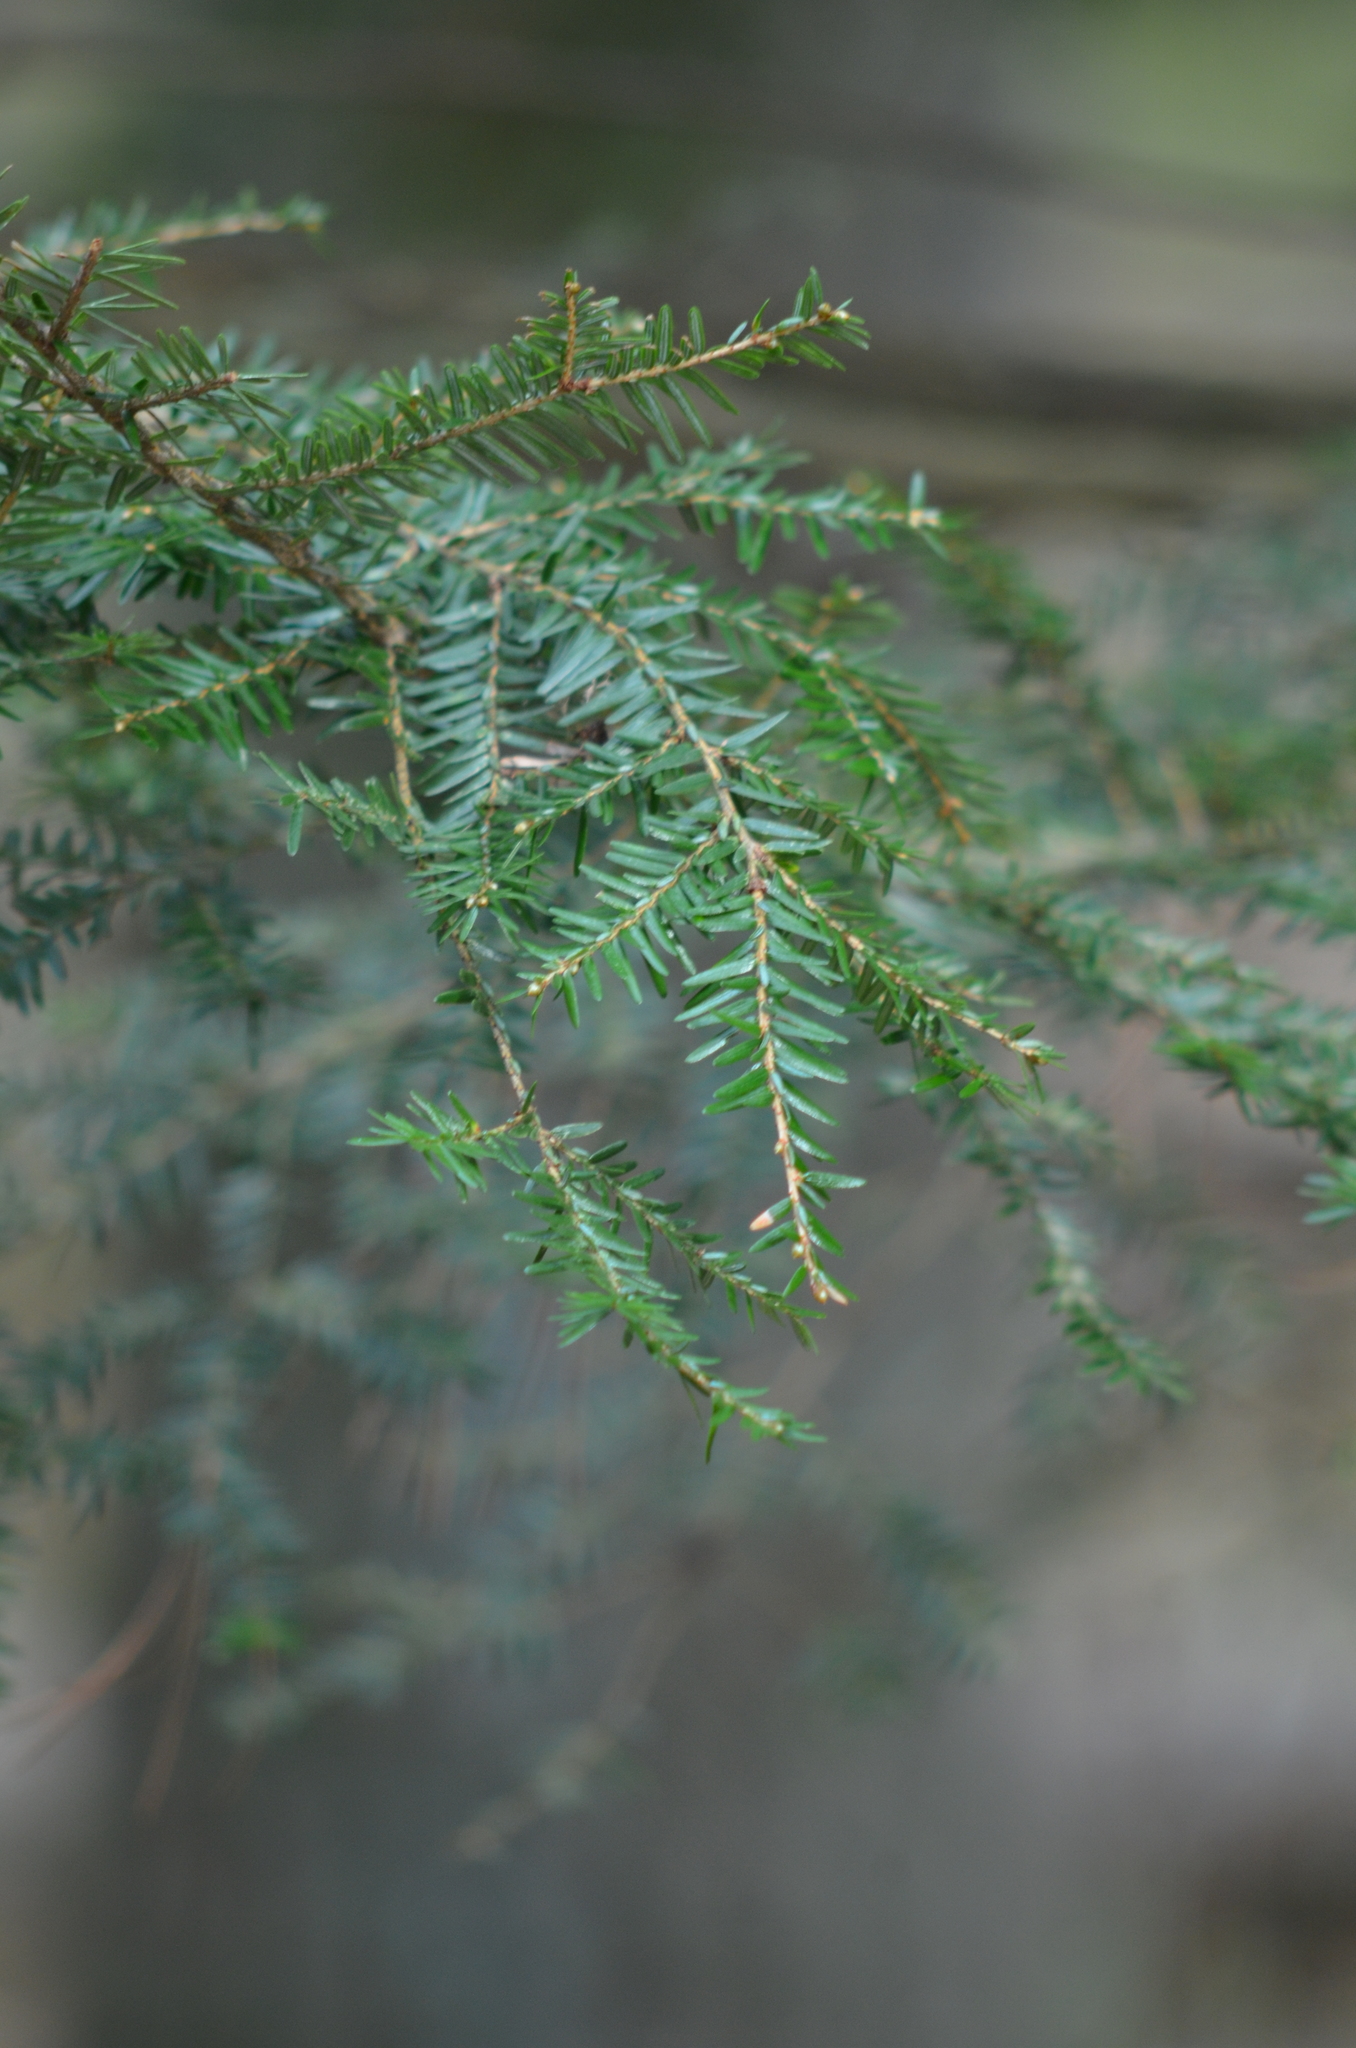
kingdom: Plantae
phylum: Tracheophyta
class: Pinopsida
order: Pinales
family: Pinaceae
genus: Tsuga
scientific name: Tsuga canadensis
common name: Eastern hemlock
